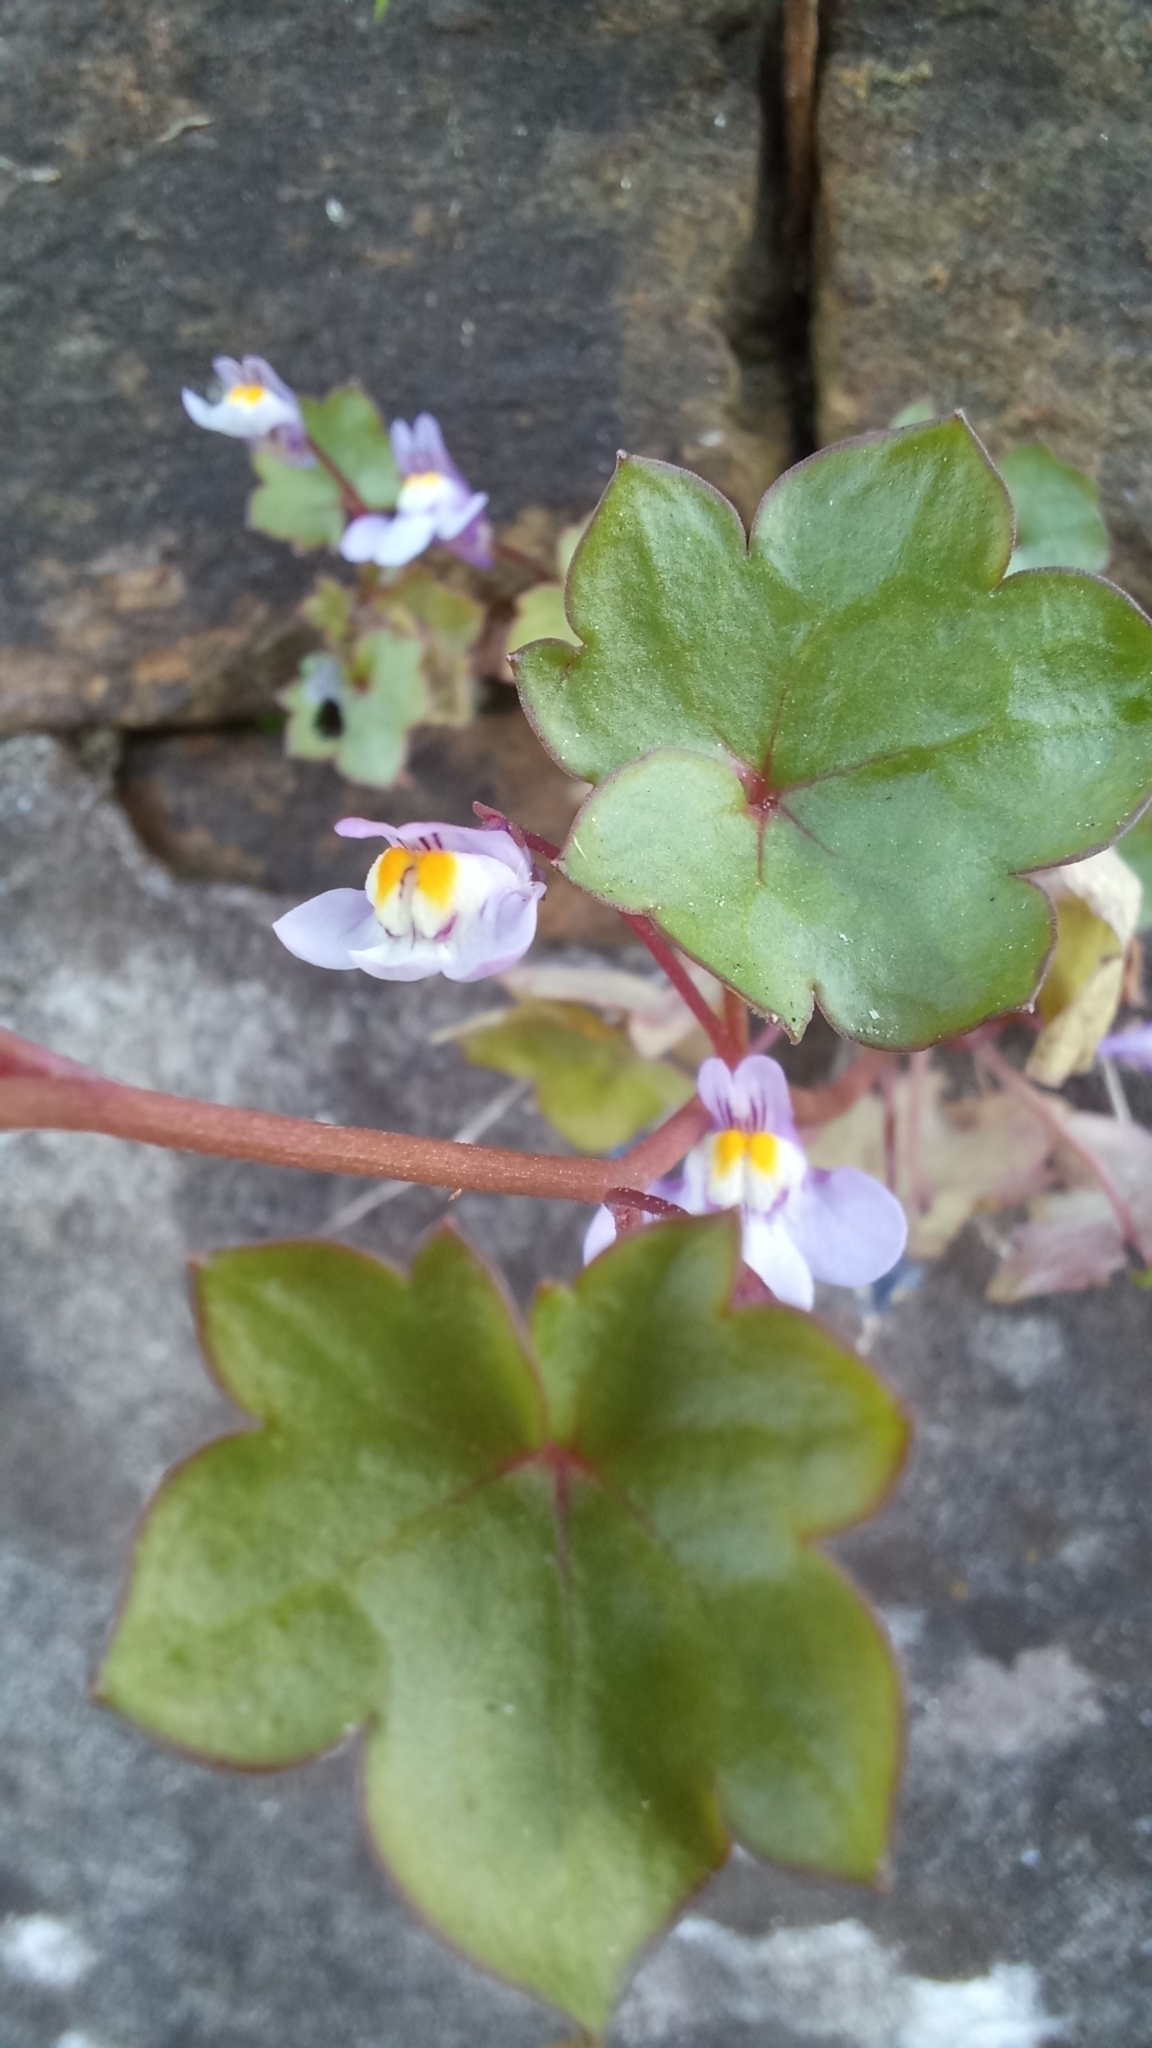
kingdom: Plantae
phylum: Tracheophyta
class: Magnoliopsida
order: Lamiales
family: Plantaginaceae
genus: Cymbalaria
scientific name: Cymbalaria muralis
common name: Ivy-leaved toadflax
